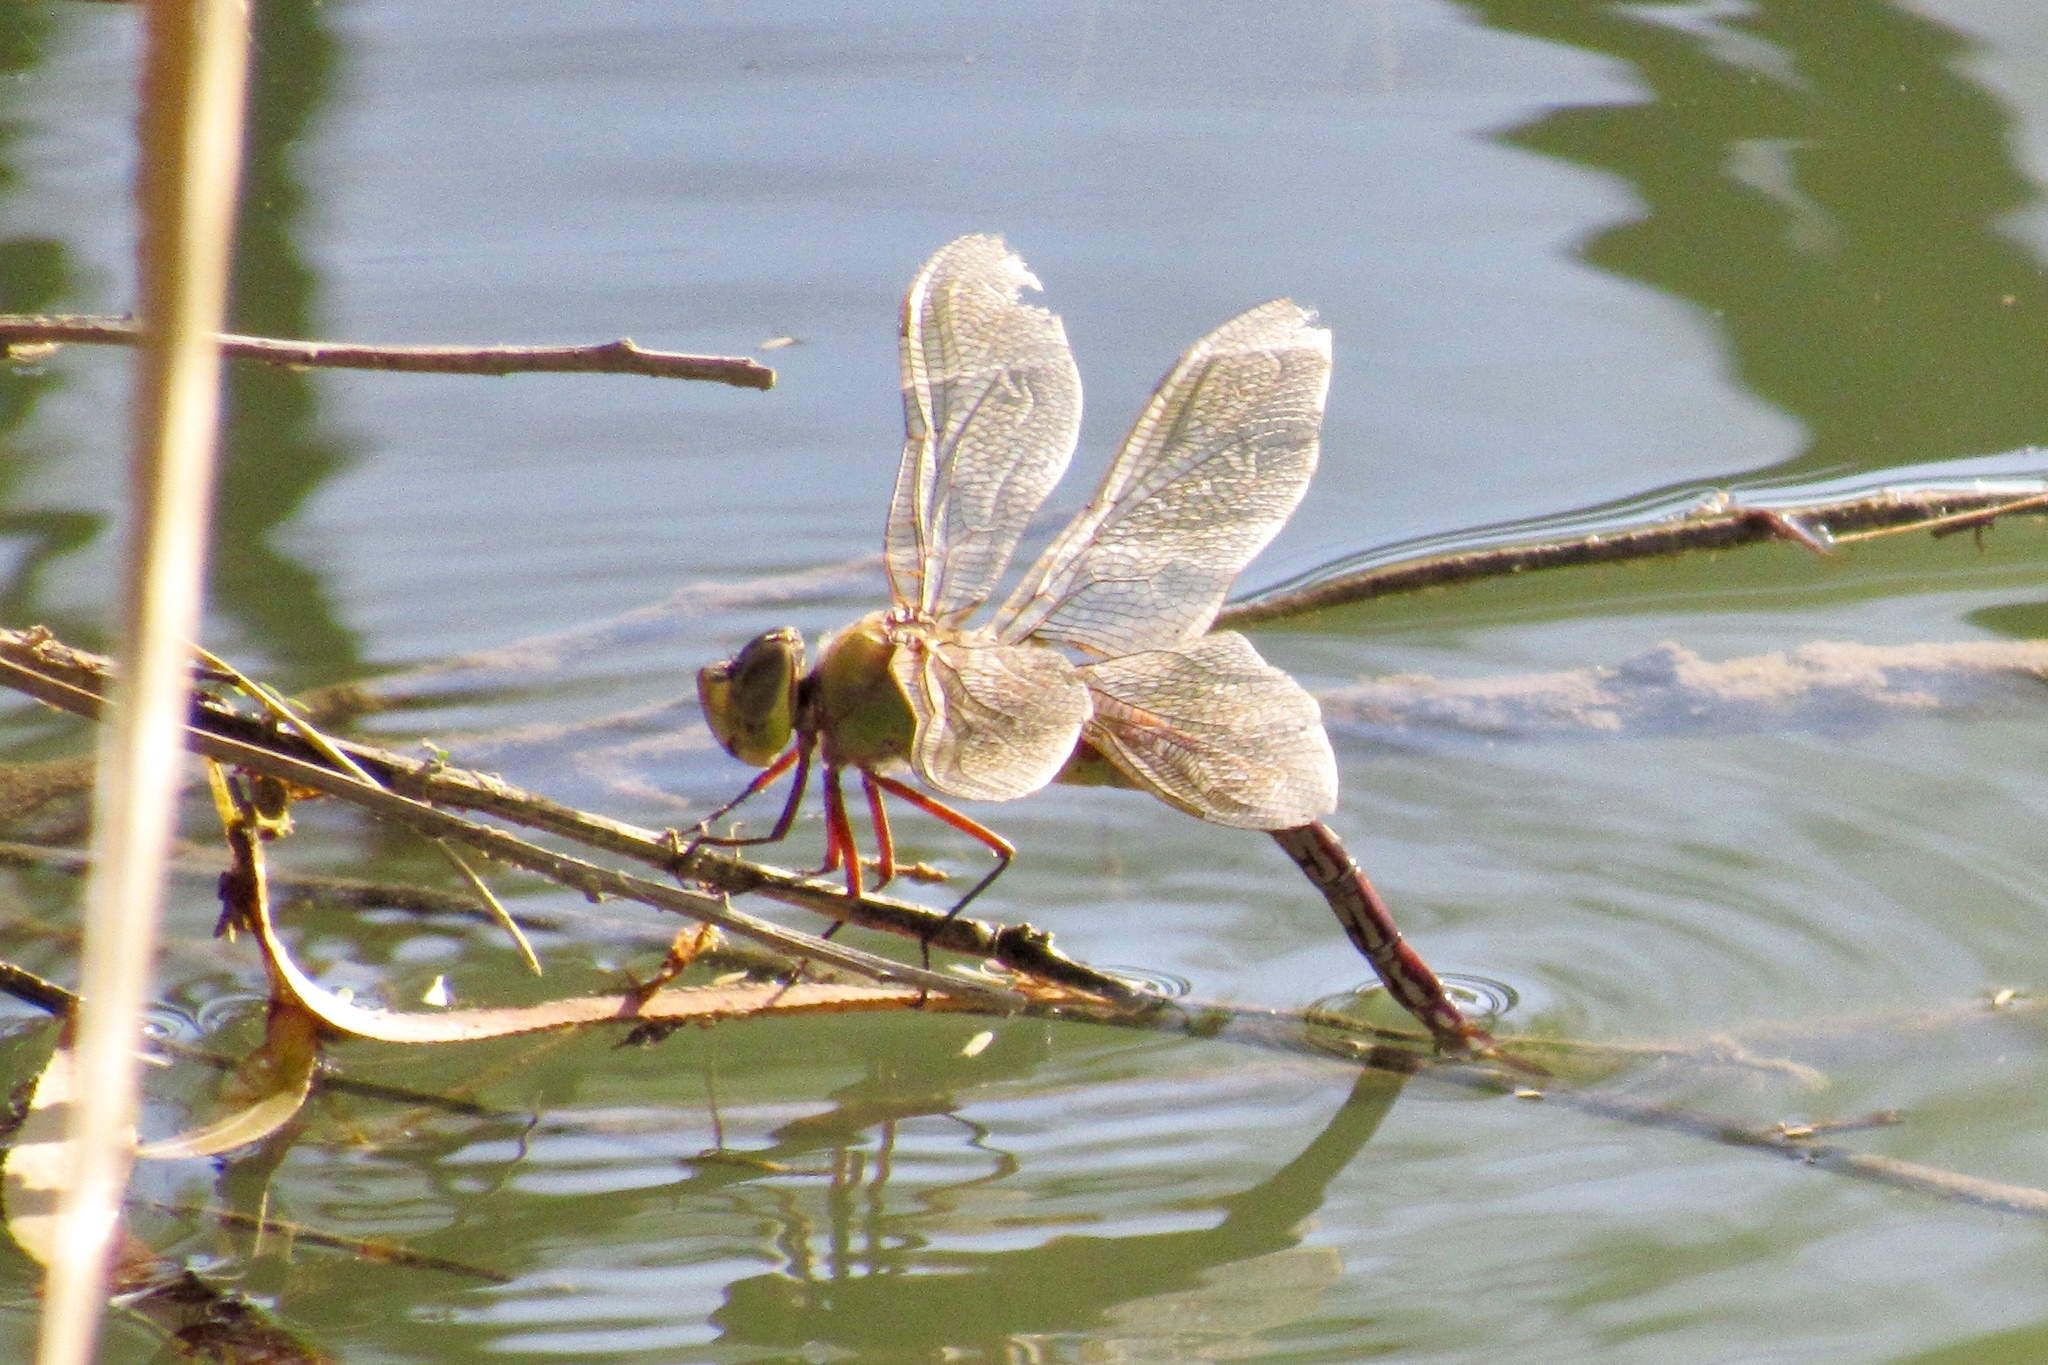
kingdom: Animalia
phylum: Arthropoda
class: Insecta
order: Odonata
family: Aeshnidae
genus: Anax
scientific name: Anax junius
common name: Common green darner
